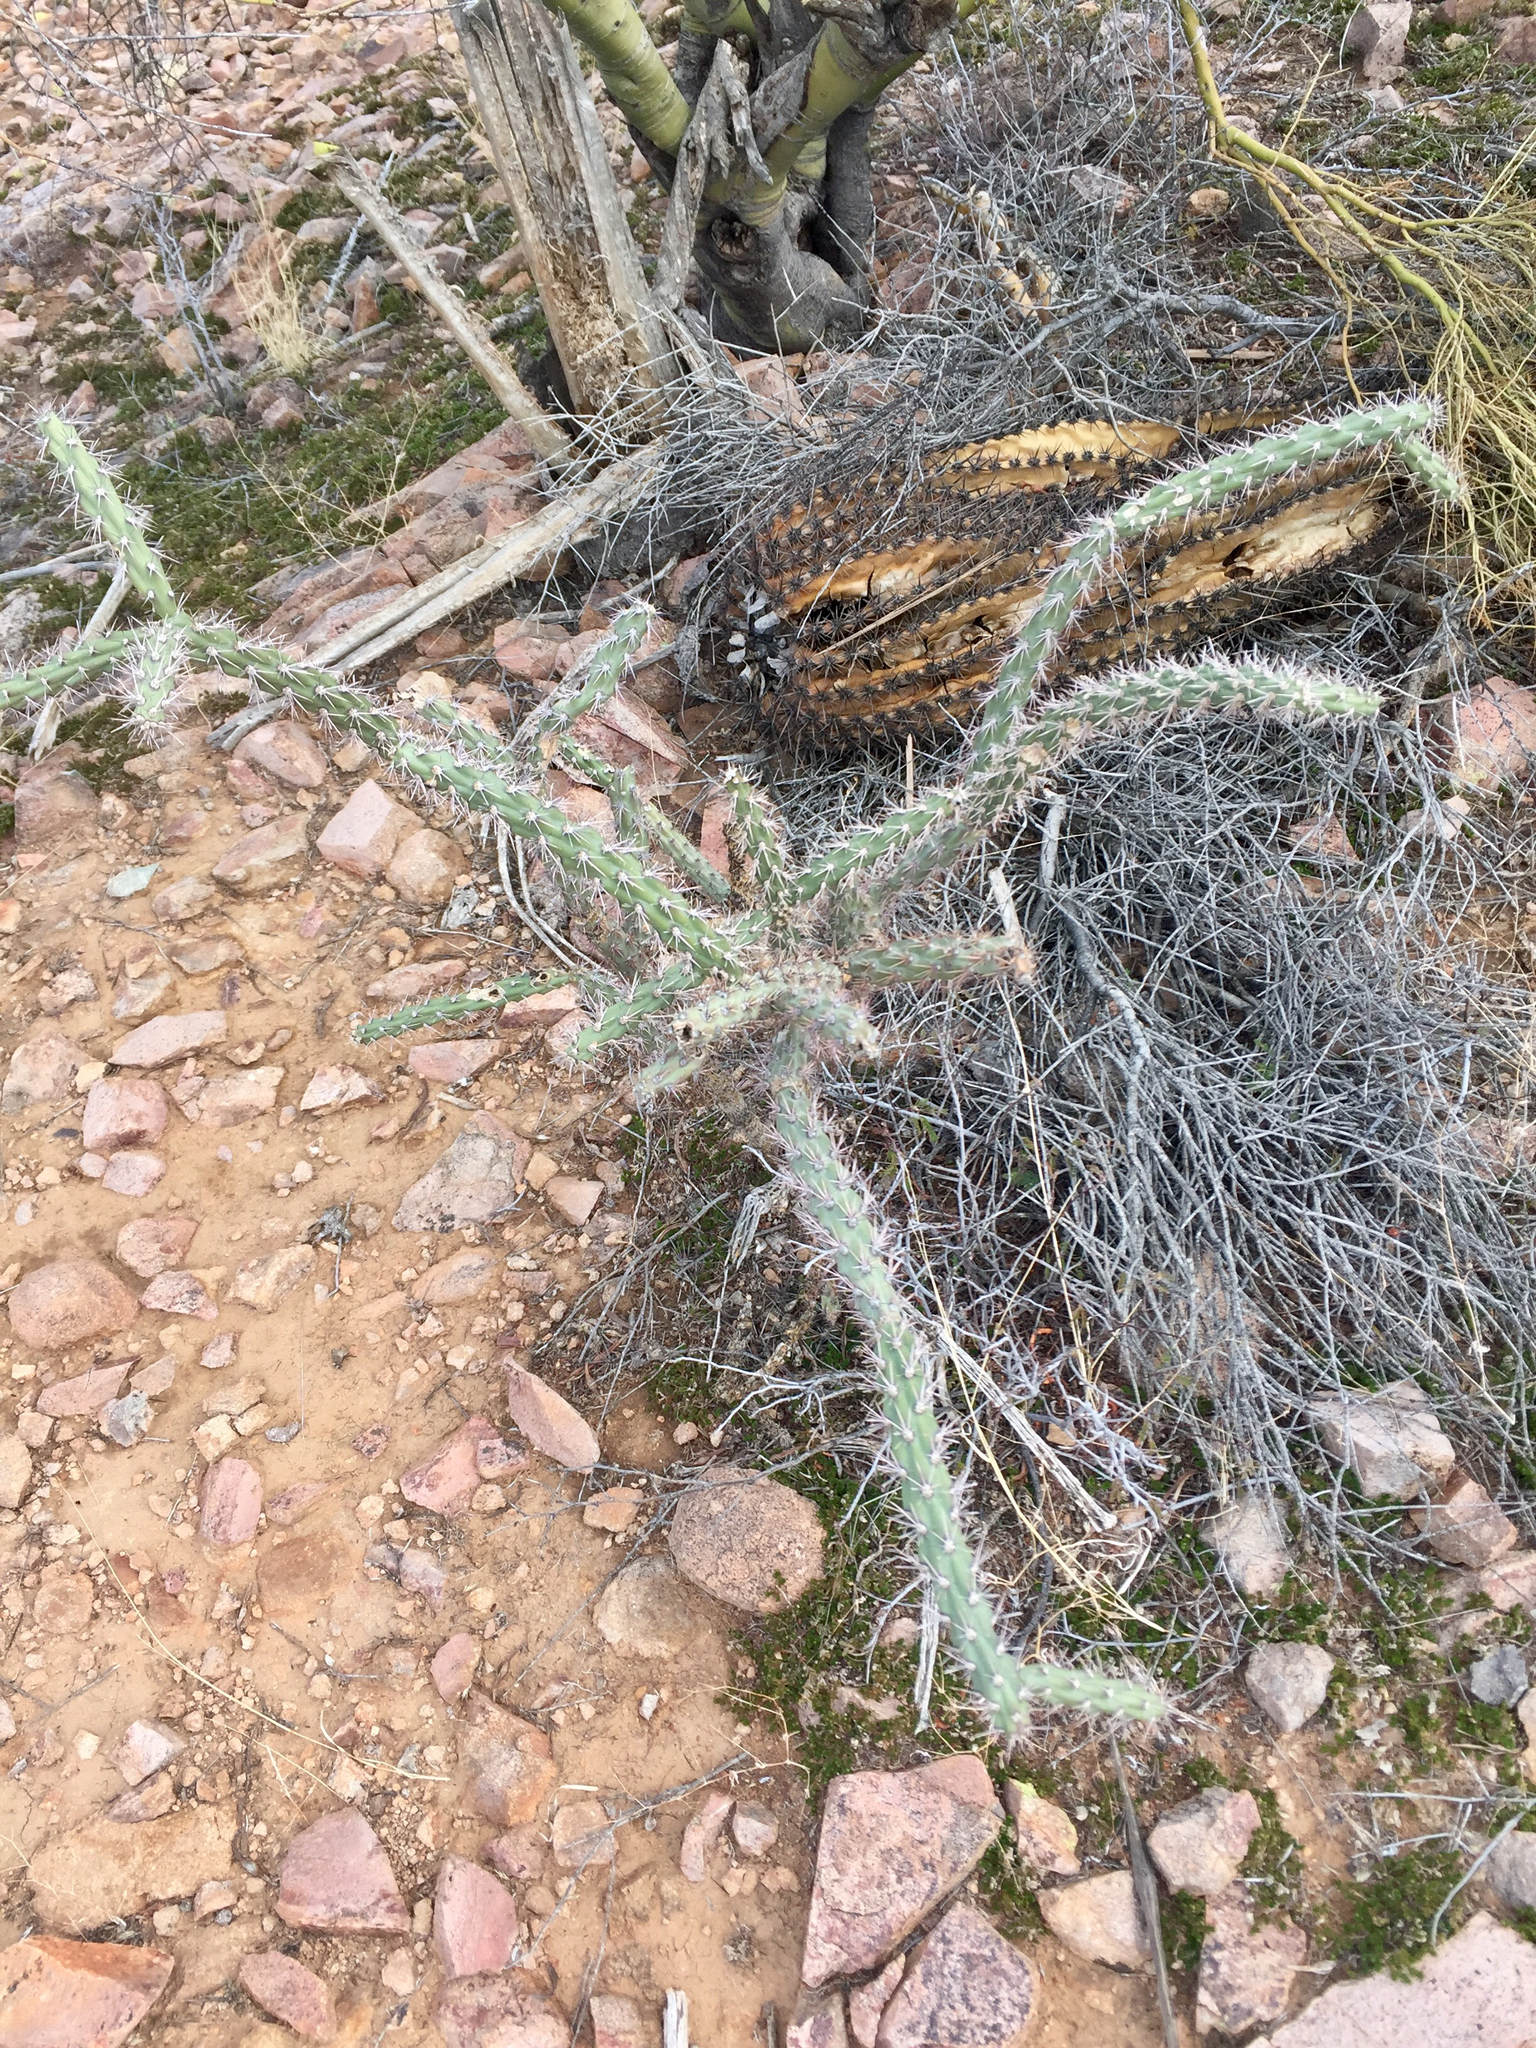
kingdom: Plantae
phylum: Tracheophyta
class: Magnoliopsida
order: Caryophyllales
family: Cactaceae
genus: Cylindropuntia
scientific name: Cylindropuntia imbricata
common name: Candelabrum cactus
